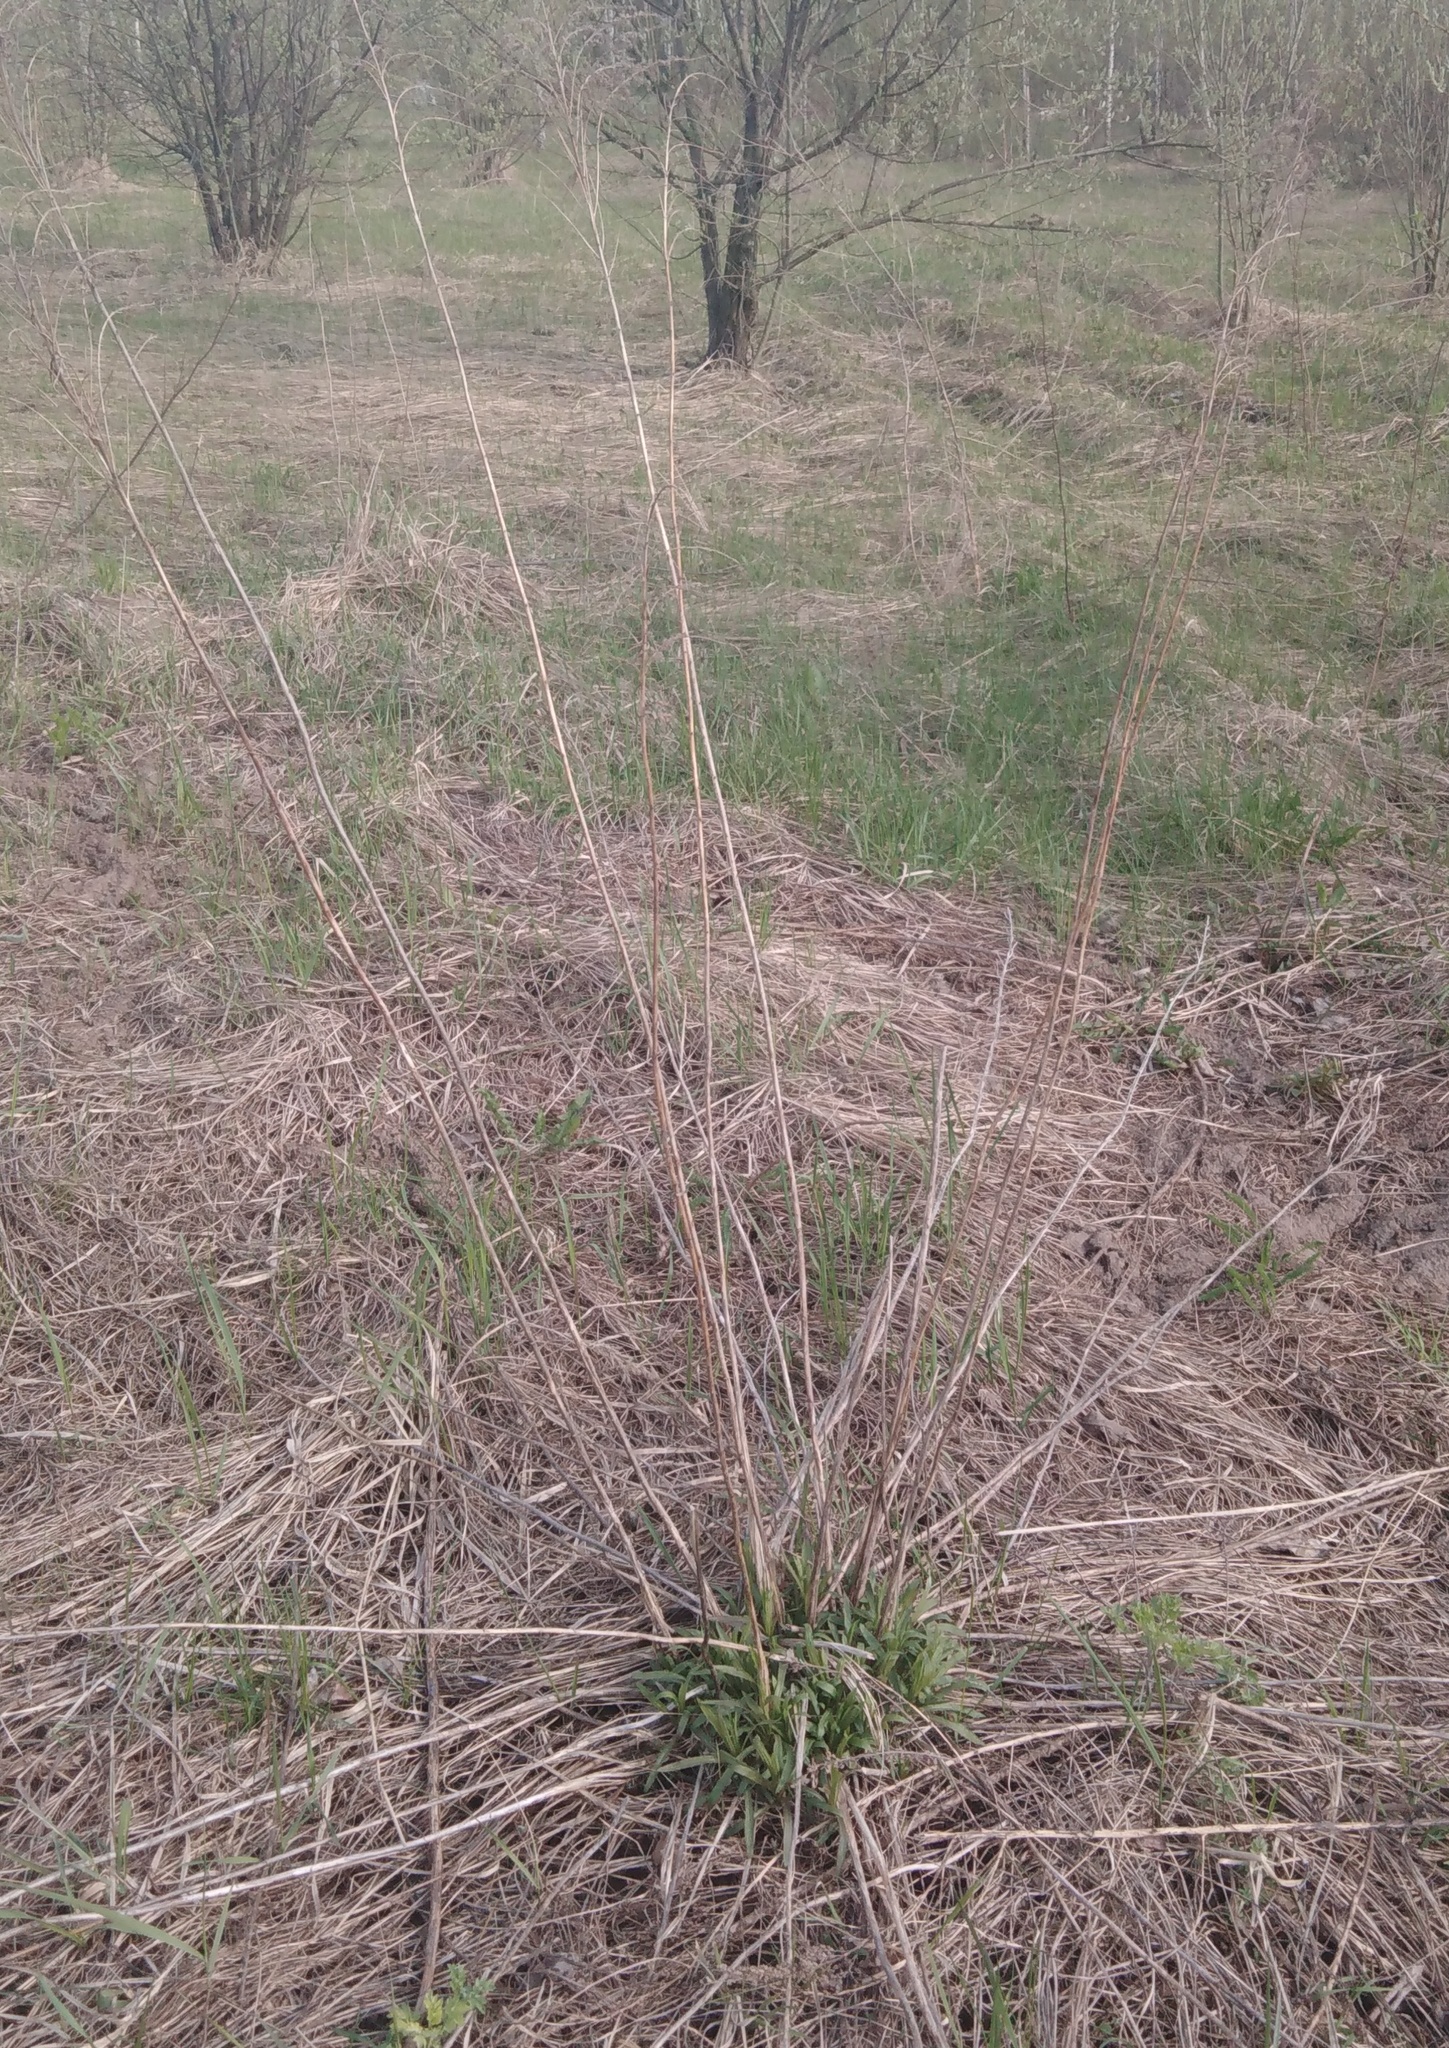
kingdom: Plantae
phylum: Tracheophyta
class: Magnoliopsida
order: Asterales
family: Asteraceae
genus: Solidago
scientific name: Solidago canadensis
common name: Canada goldenrod
